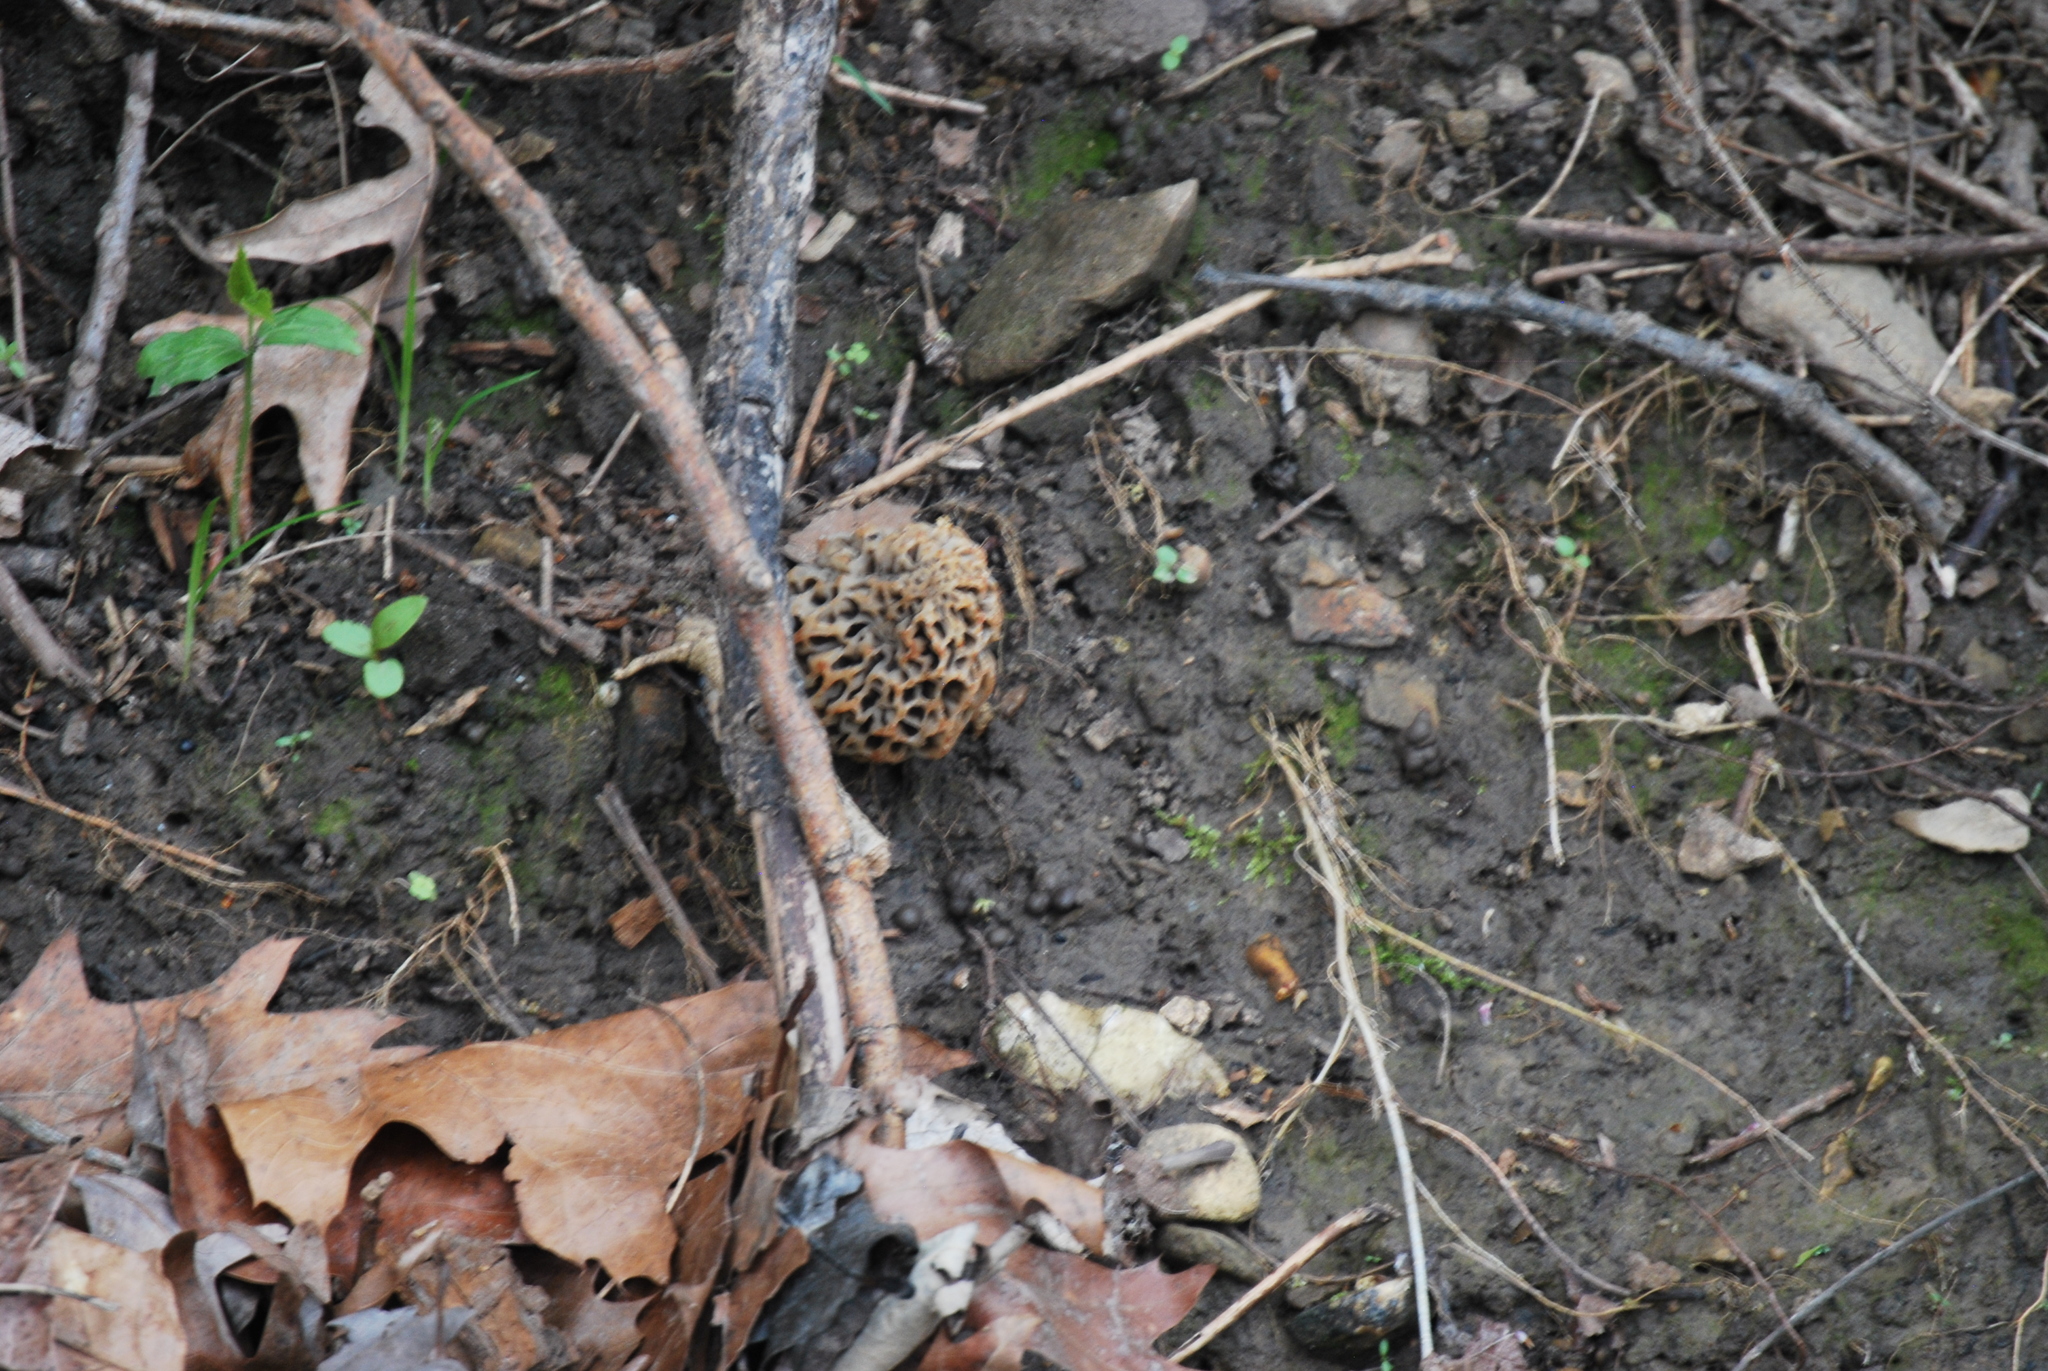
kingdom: Fungi
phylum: Ascomycota
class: Pezizomycetes
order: Pezizales
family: Morchellaceae
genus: Morchella
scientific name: Morchella americana
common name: White morel
